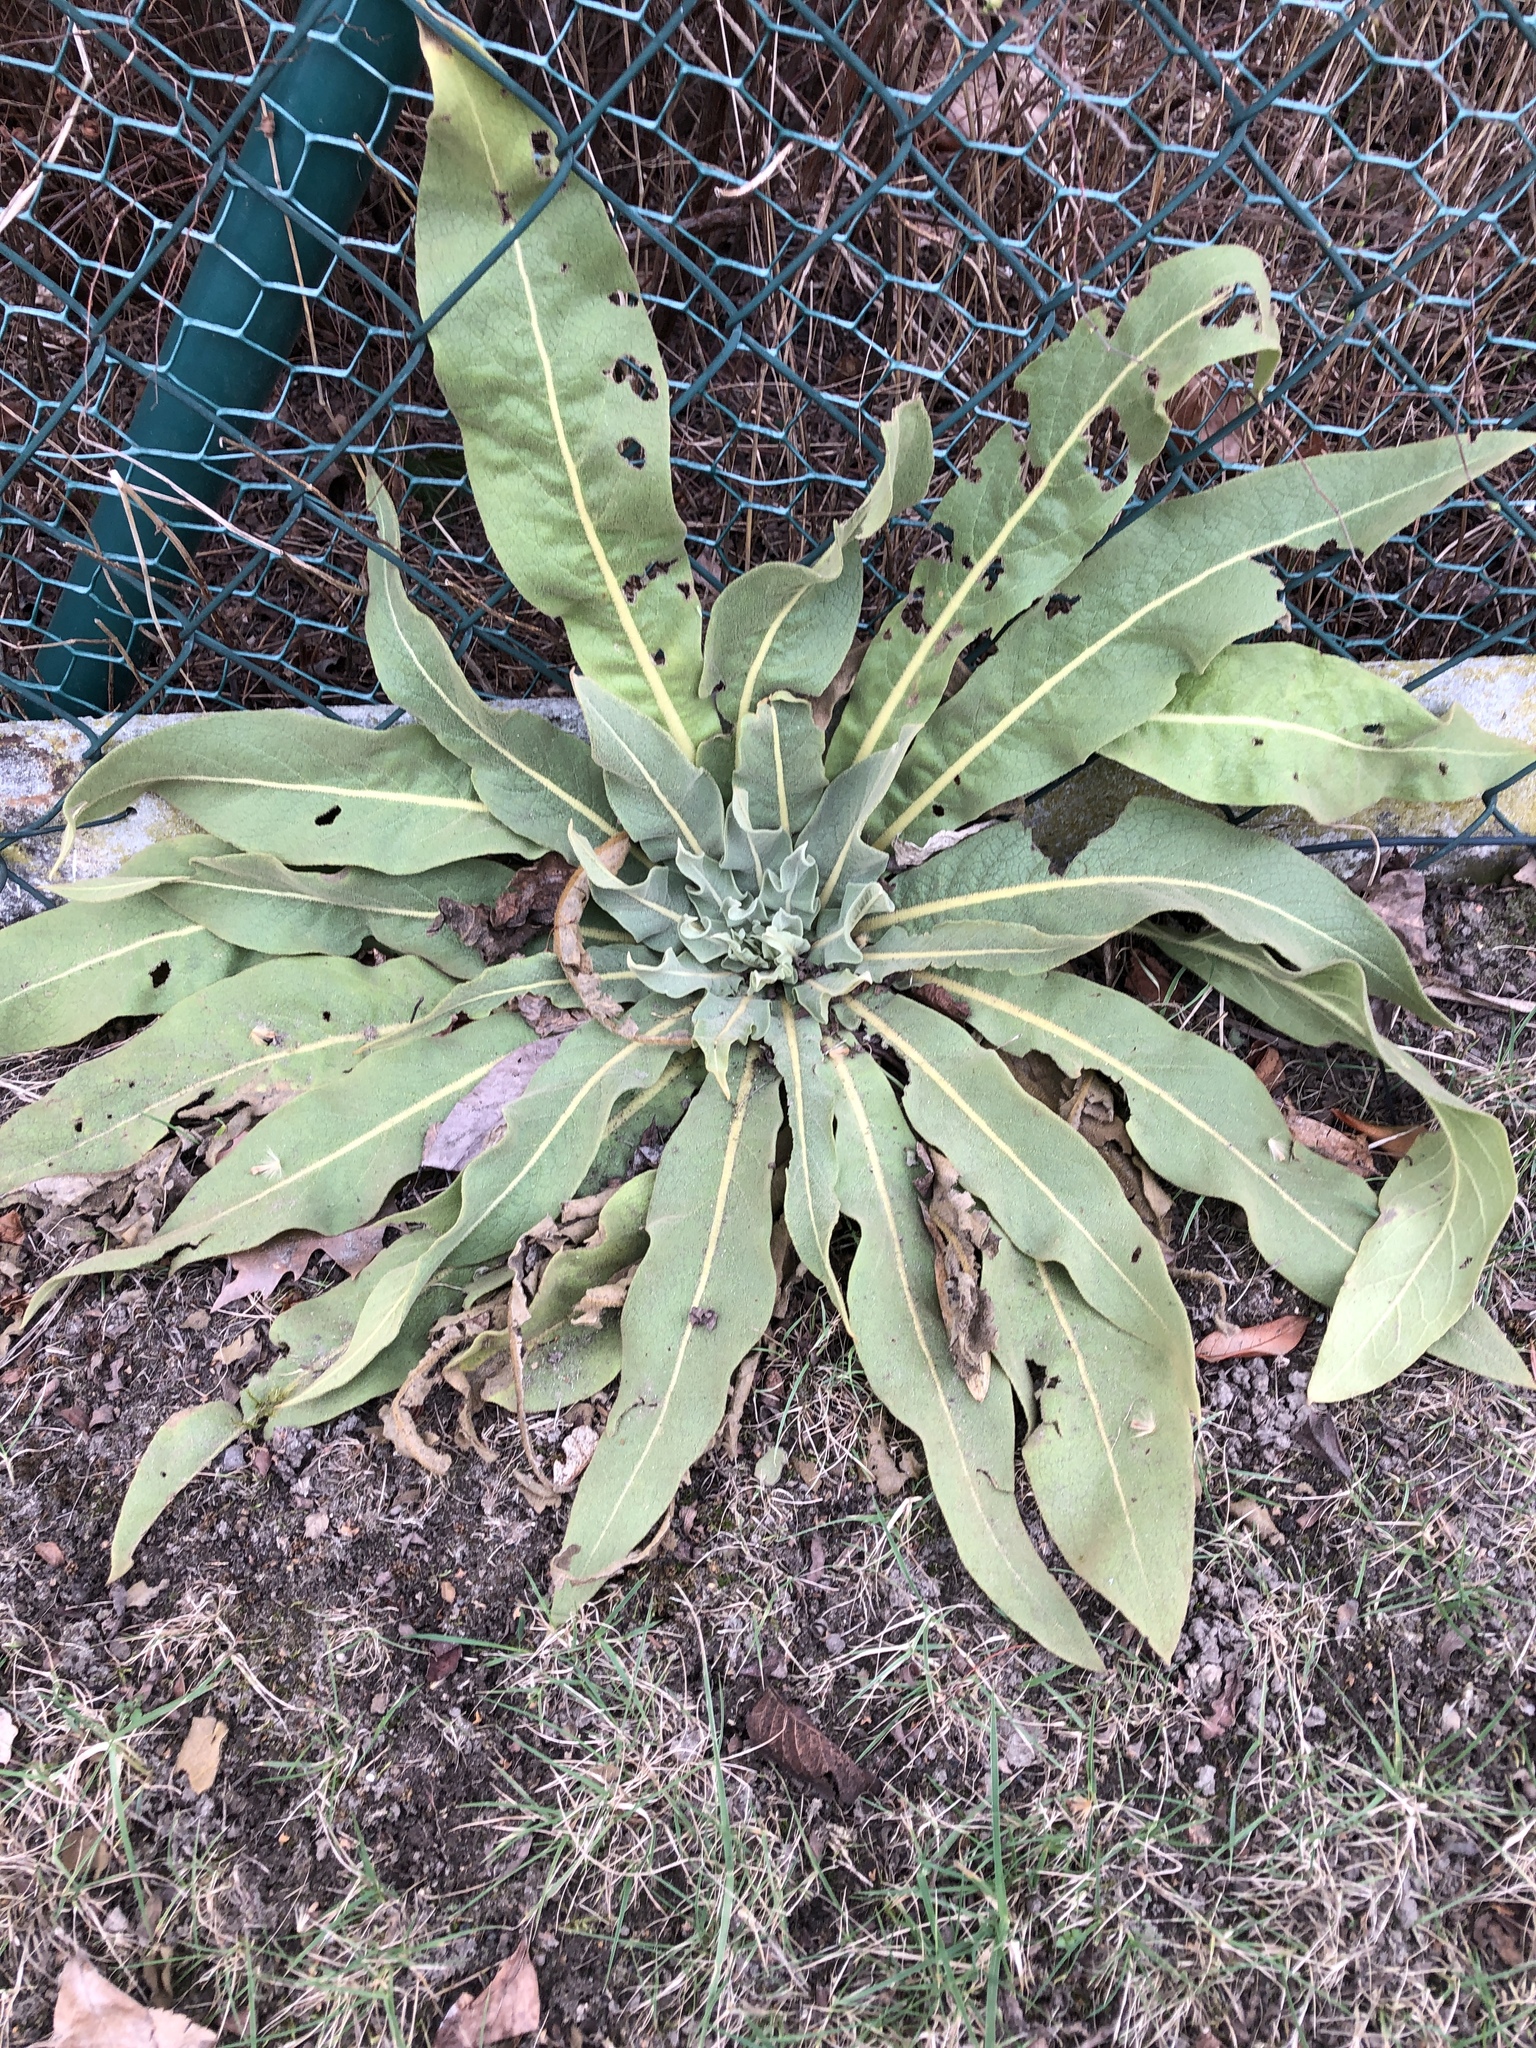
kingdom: Plantae
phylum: Tracheophyta
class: Magnoliopsida
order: Lamiales
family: Scrophulariaceae
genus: Verbascum
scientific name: Verbascum thapsus
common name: Common mullein
